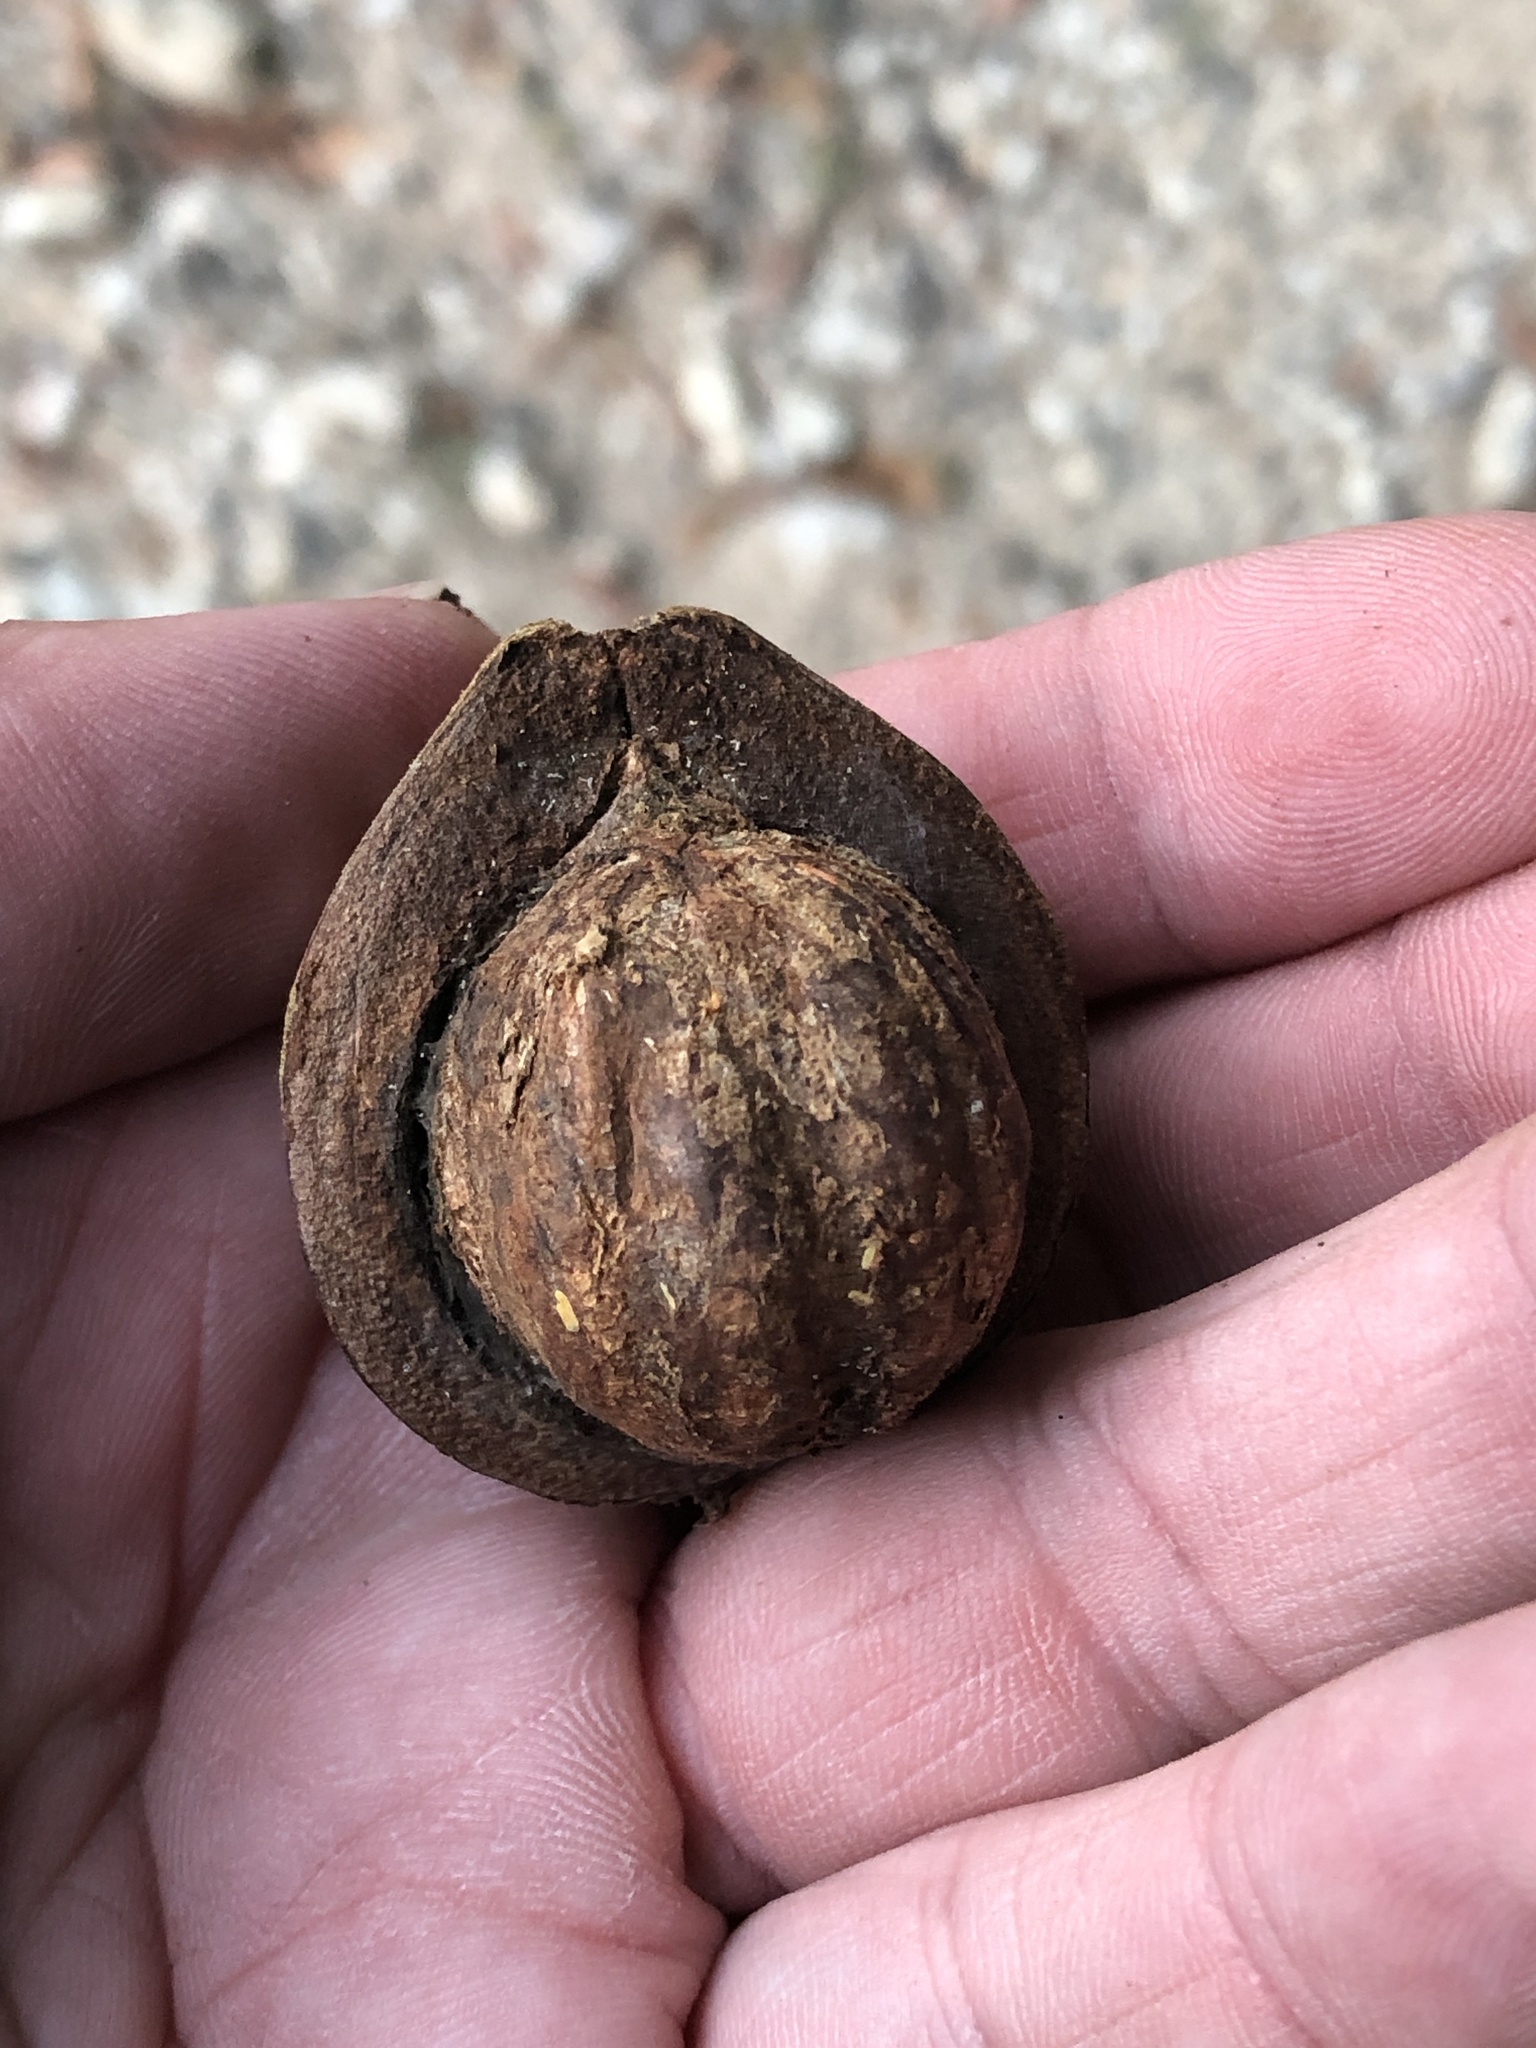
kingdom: Plantae
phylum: Tracheophyta
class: Magnoliopsida
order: Fagales
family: Juglandaceae
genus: Carya
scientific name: Carya cordiformis
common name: Bitternut hickory
